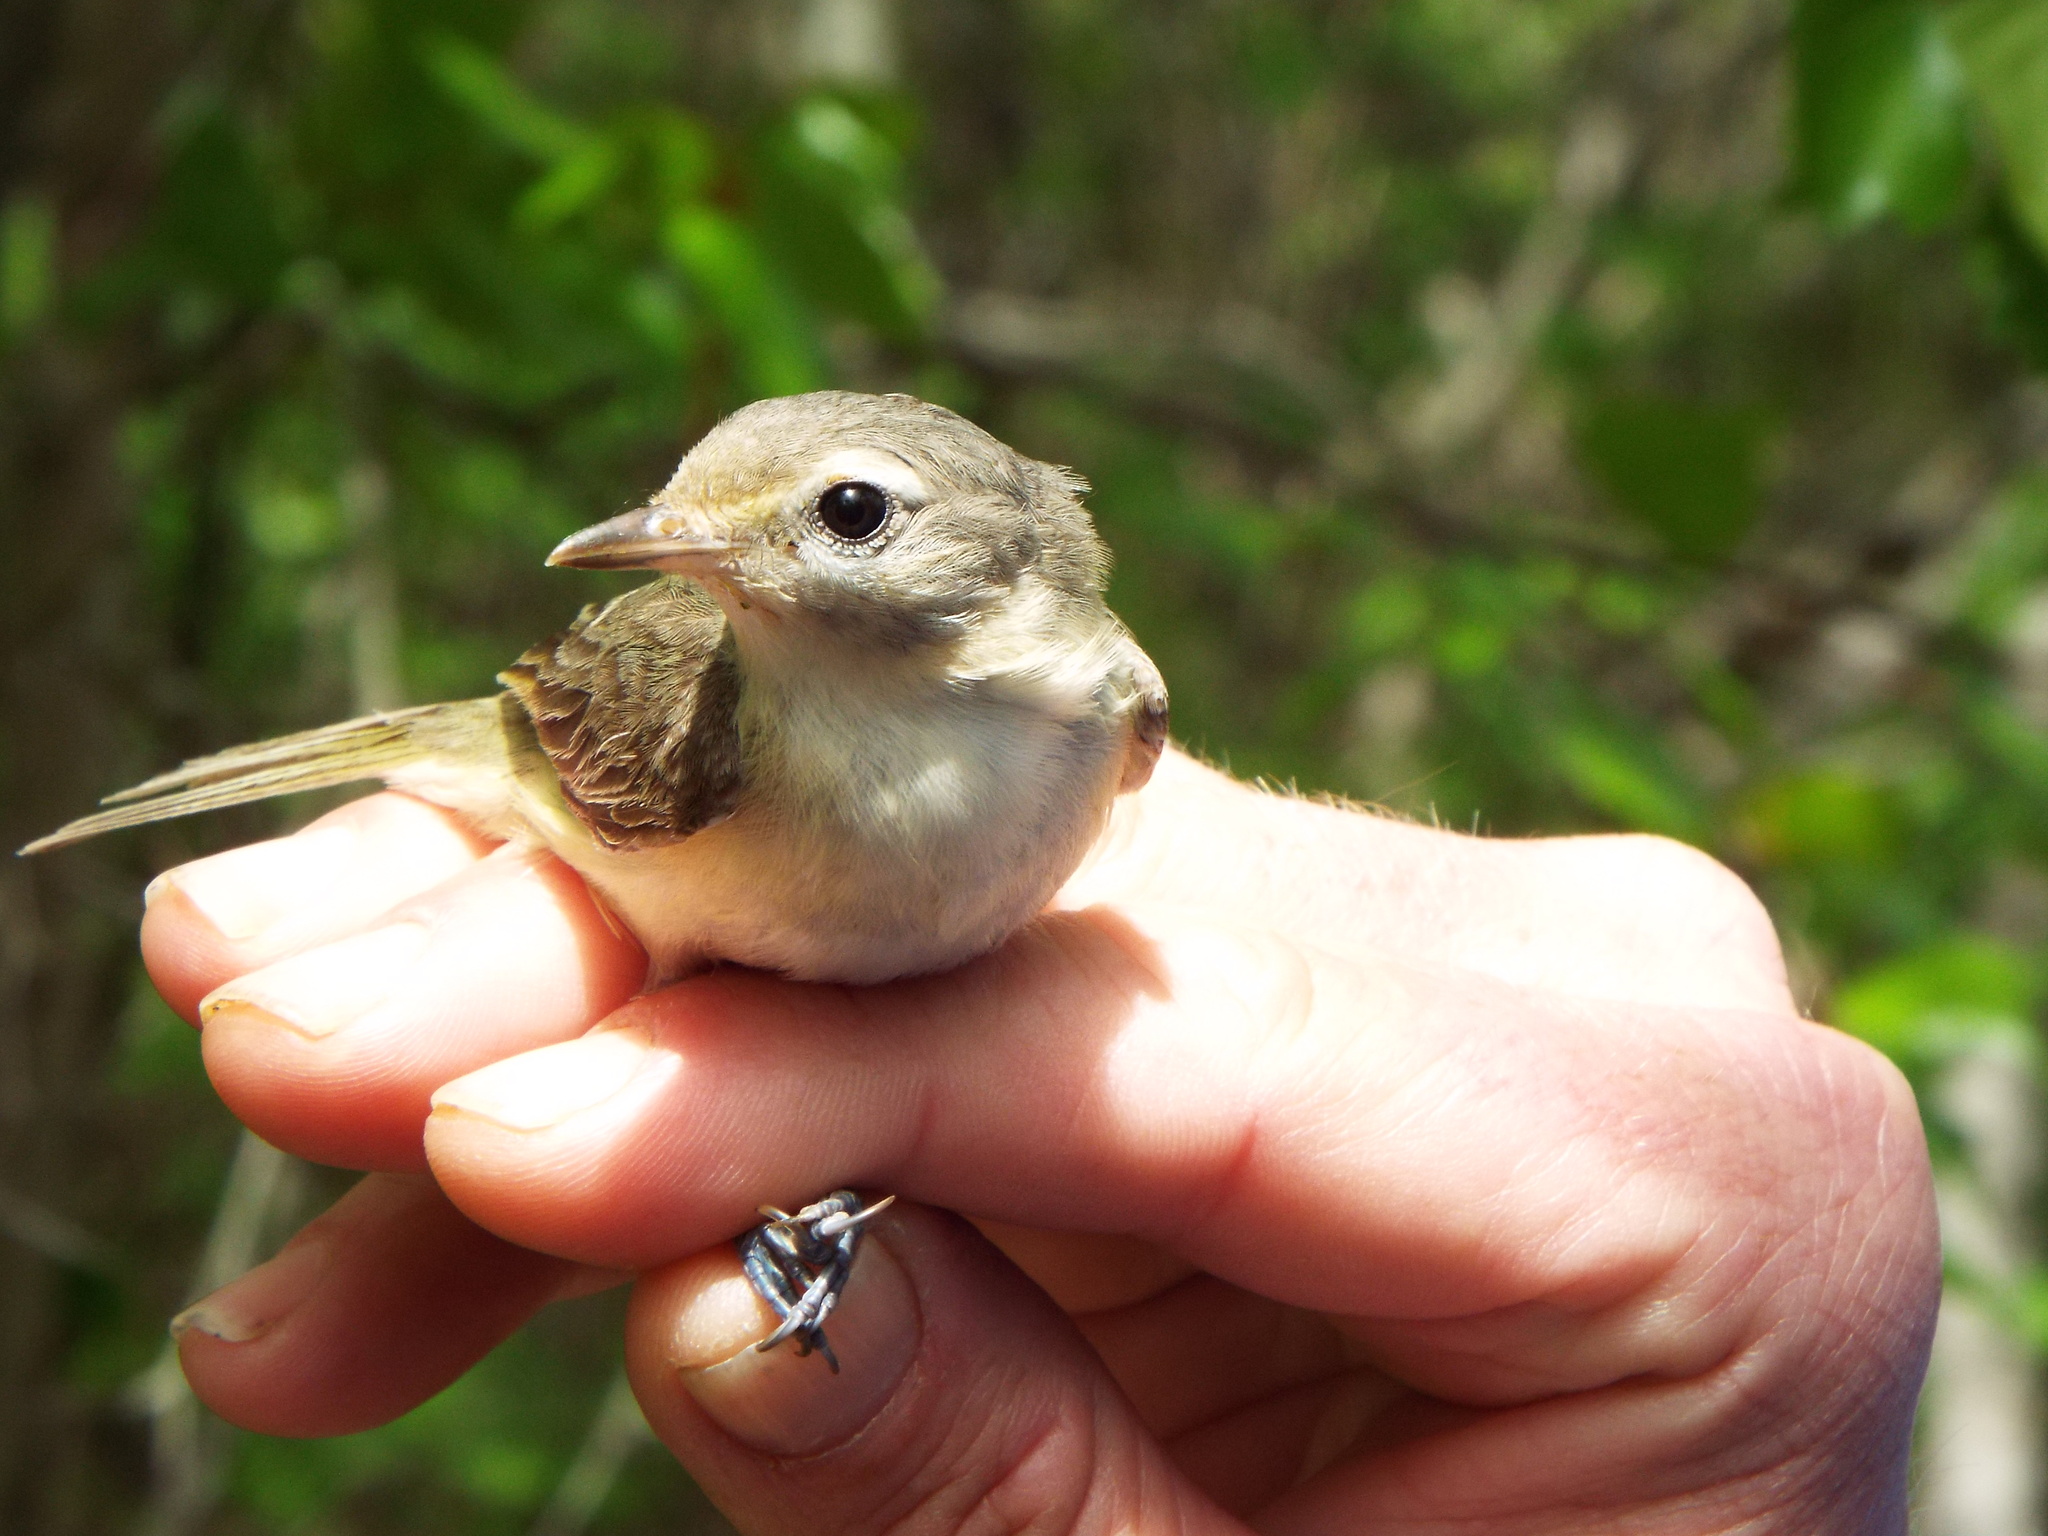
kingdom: Animalia
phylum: Chordata
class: Aves
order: Passeriformes
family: Vireonidae
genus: Vireo
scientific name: Vireo gilvus
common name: Warbling vireo
